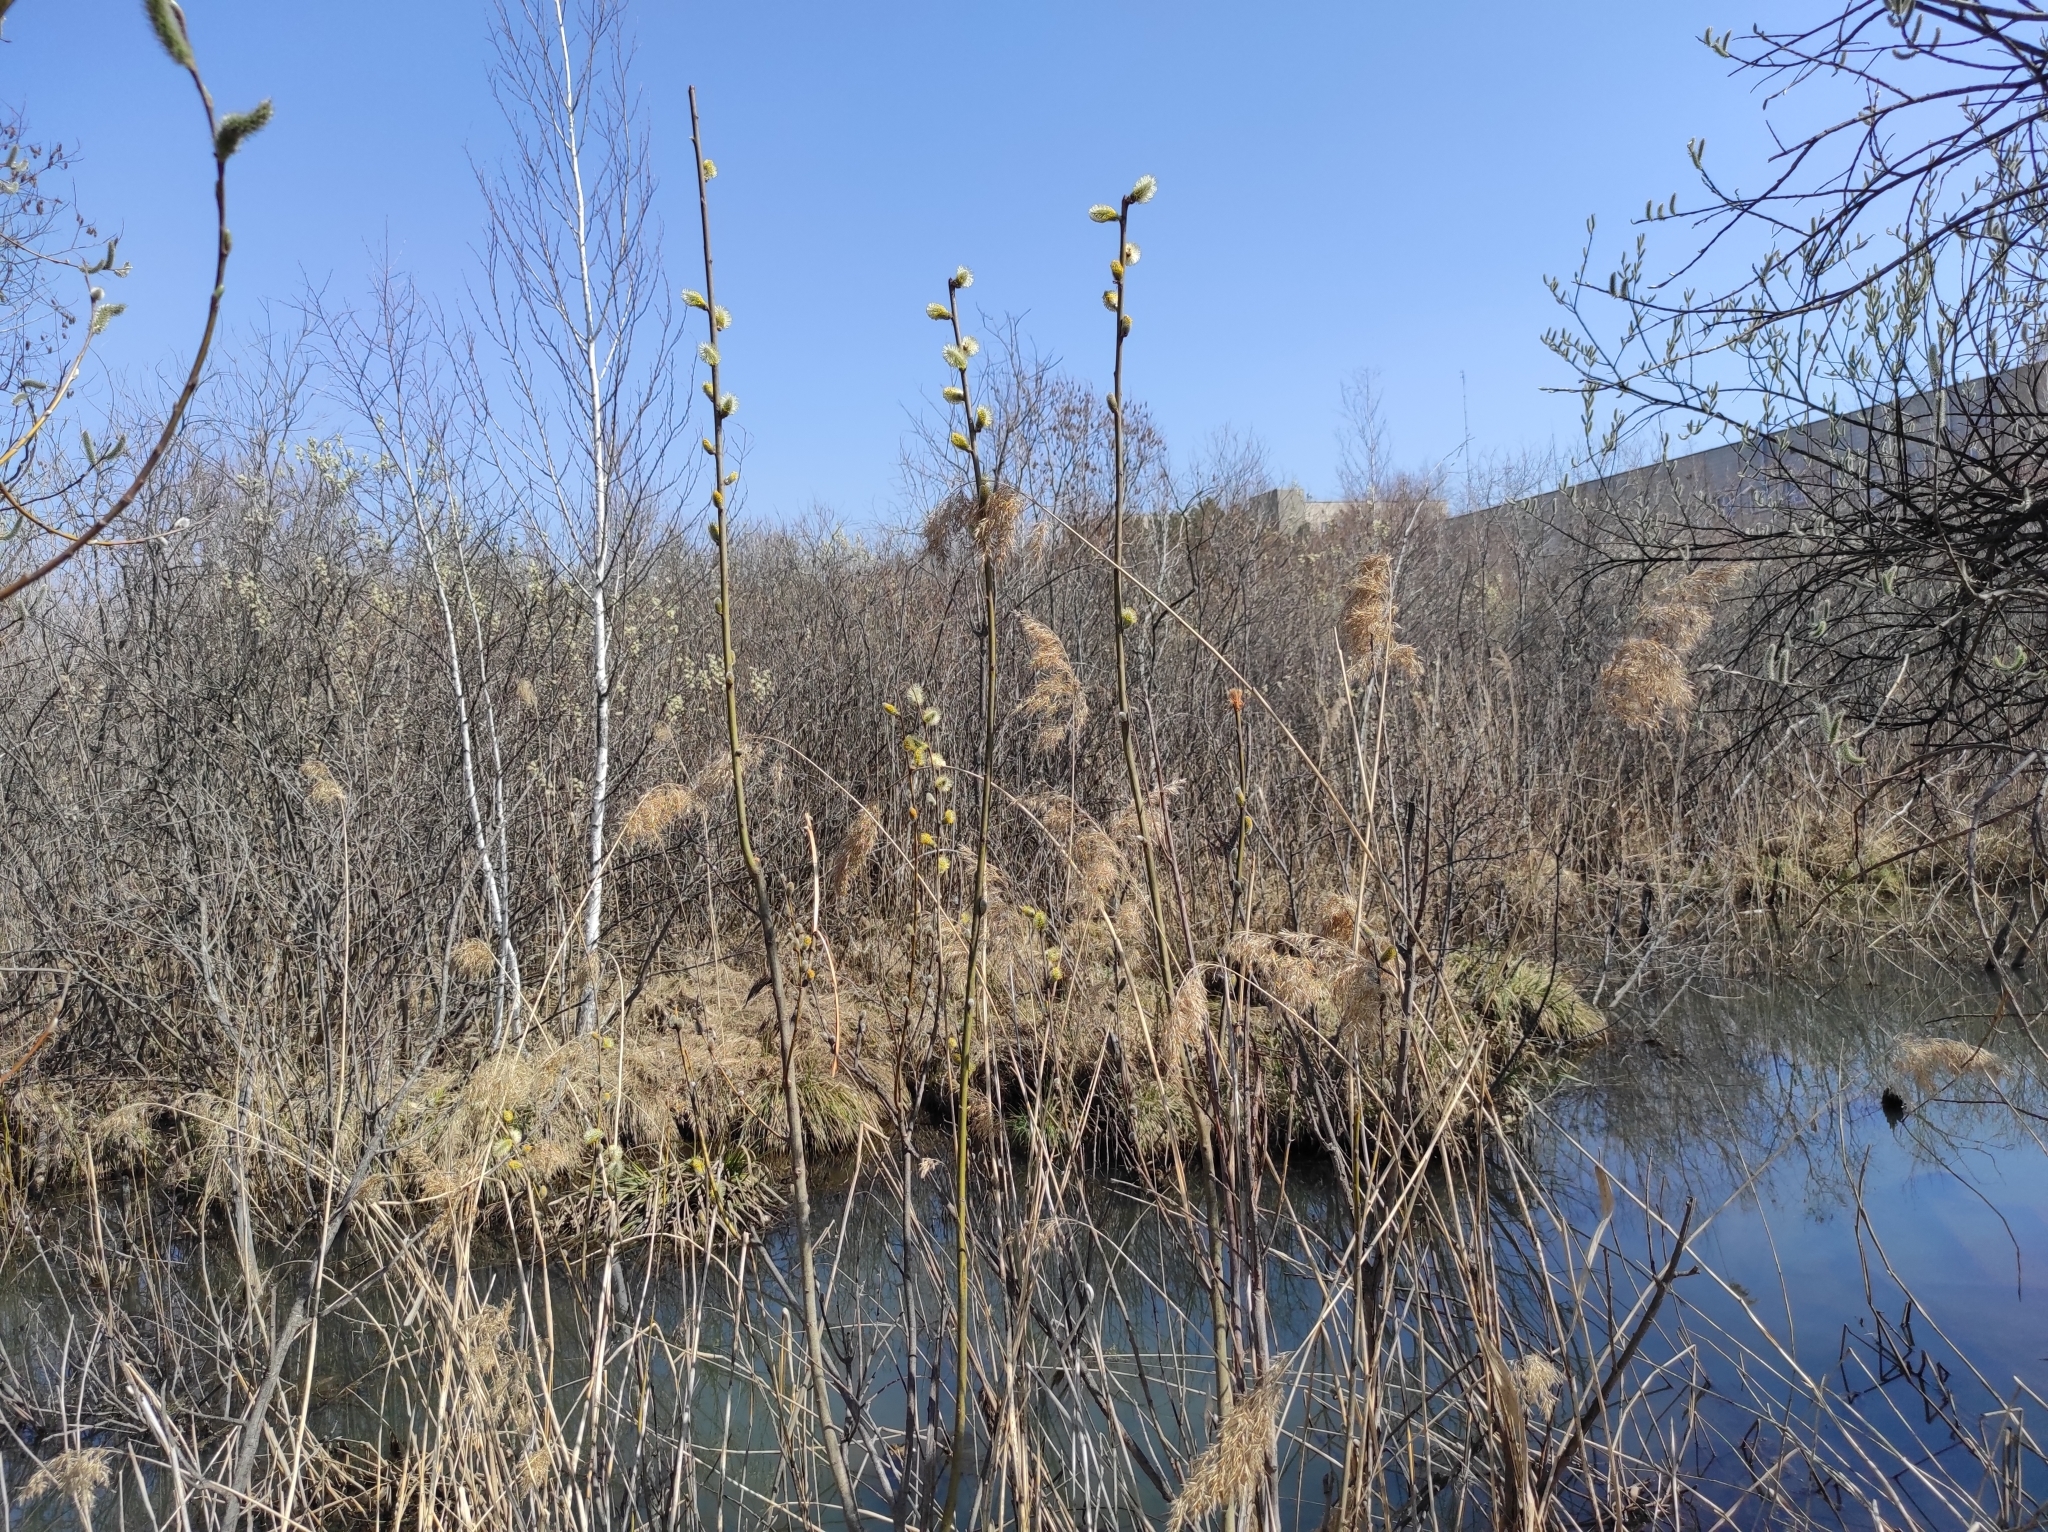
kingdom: Plantae
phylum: Tracheophyta
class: Liliopsida
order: Poales
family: Poaceae
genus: Phragmites
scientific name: Phragmites australis
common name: Common reed
